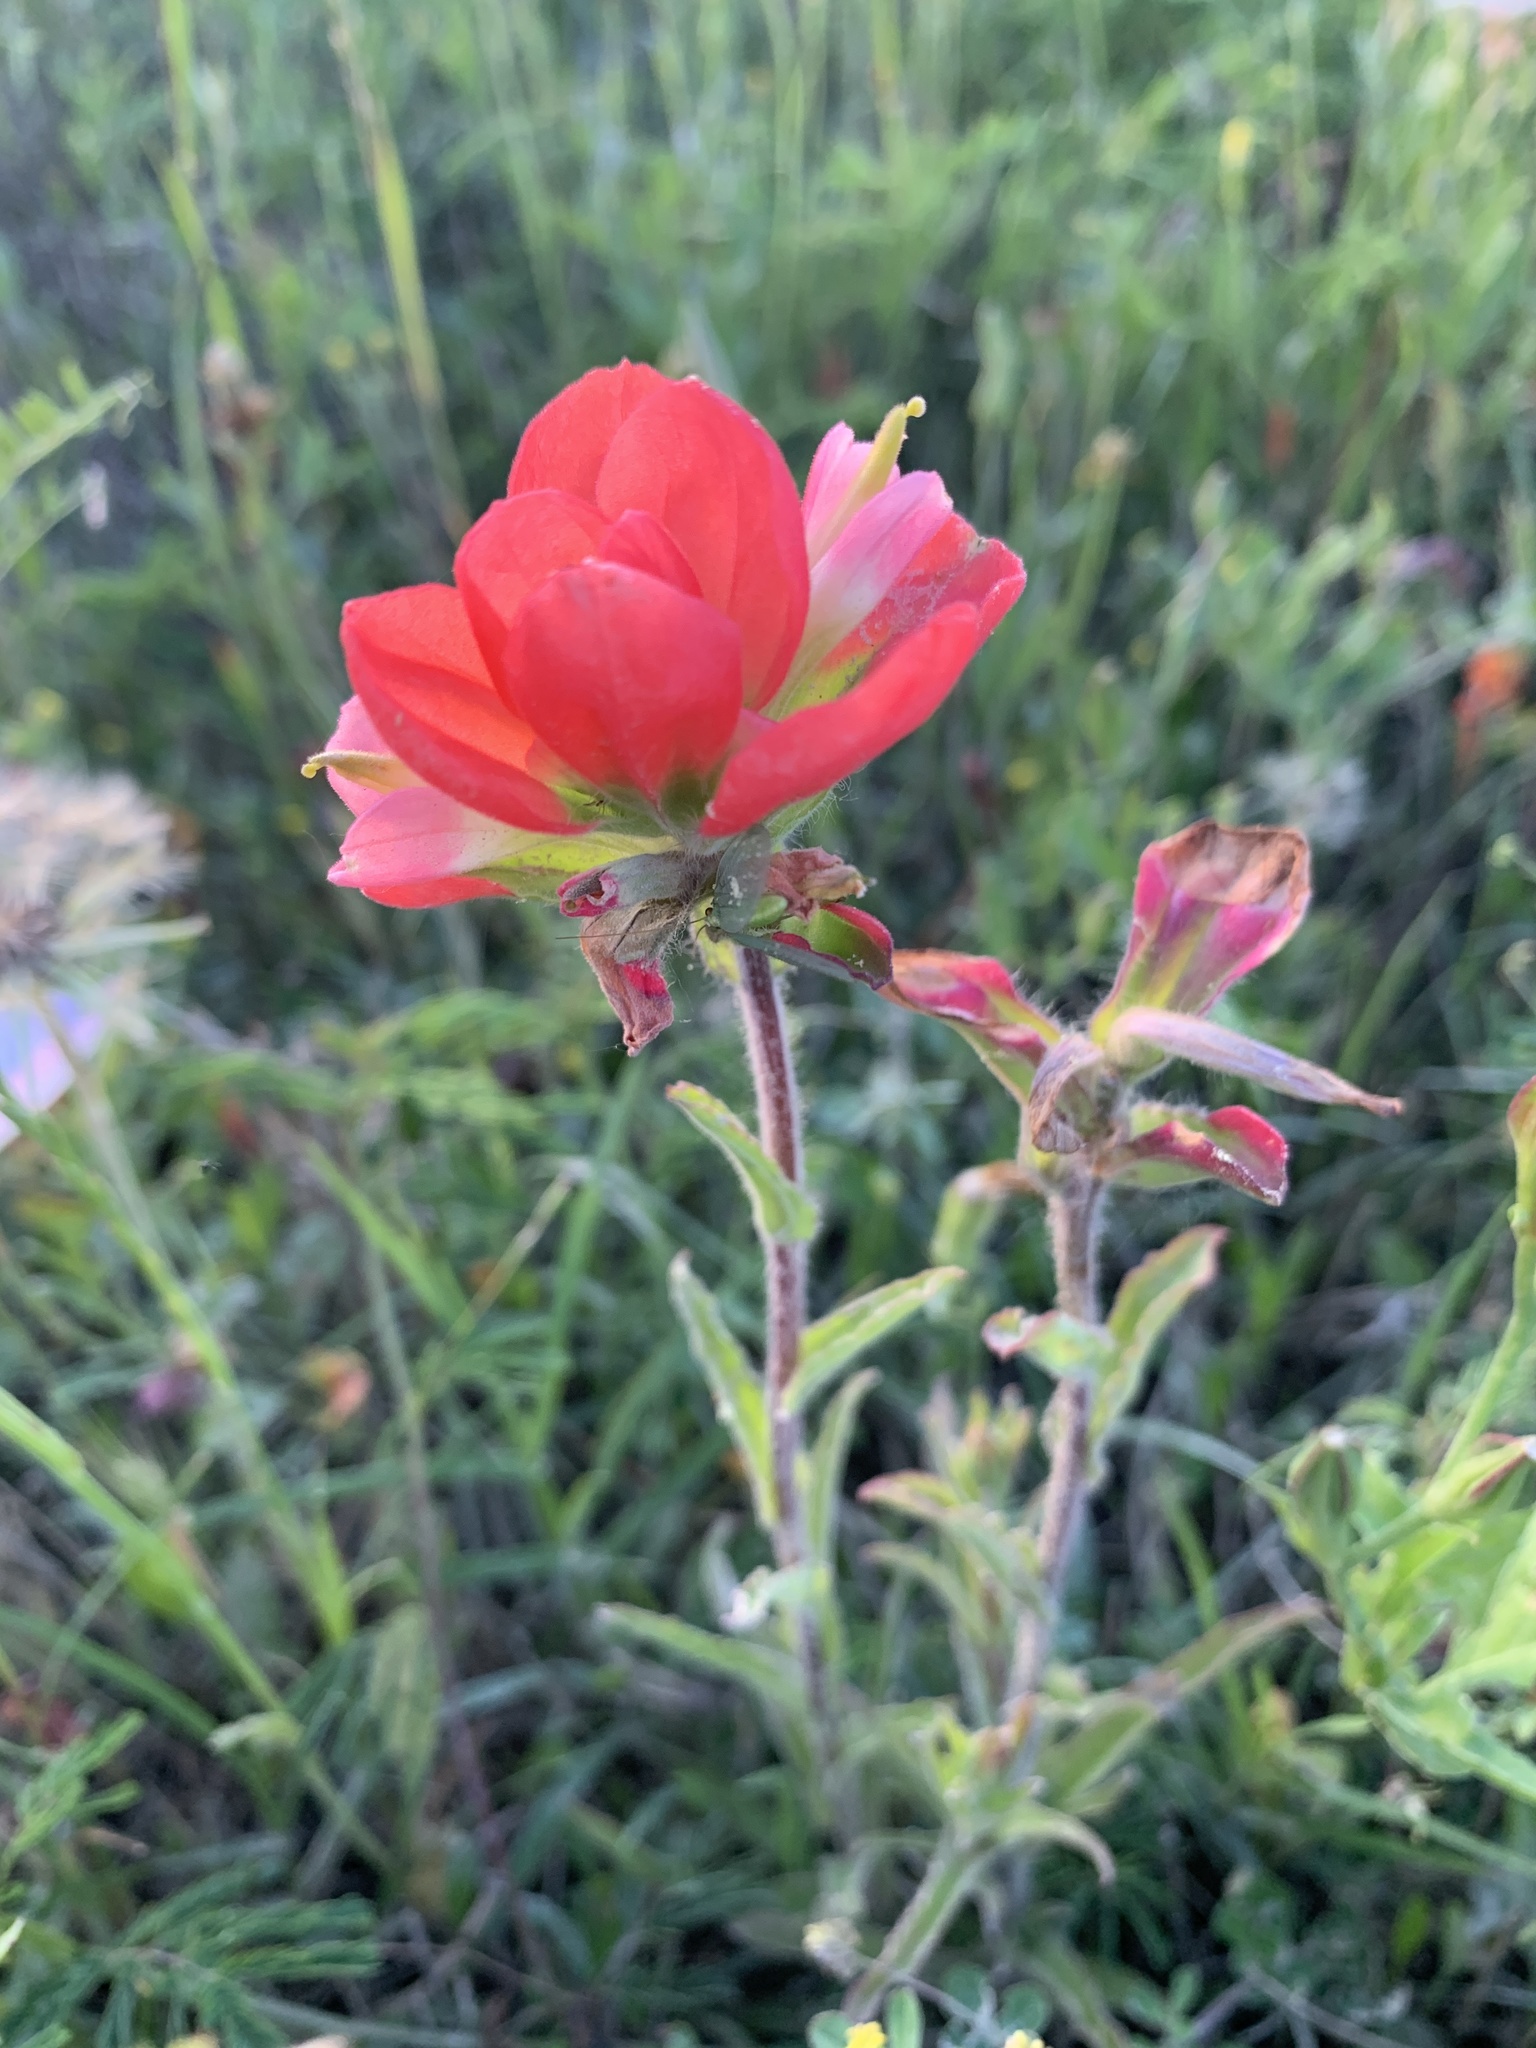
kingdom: Plantae
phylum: Tracheophyta
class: Magnoliopsida
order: Lamiales
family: Orobanchaceae
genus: Castilleja
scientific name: Castilleja indivisa
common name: Texas paintbrush
